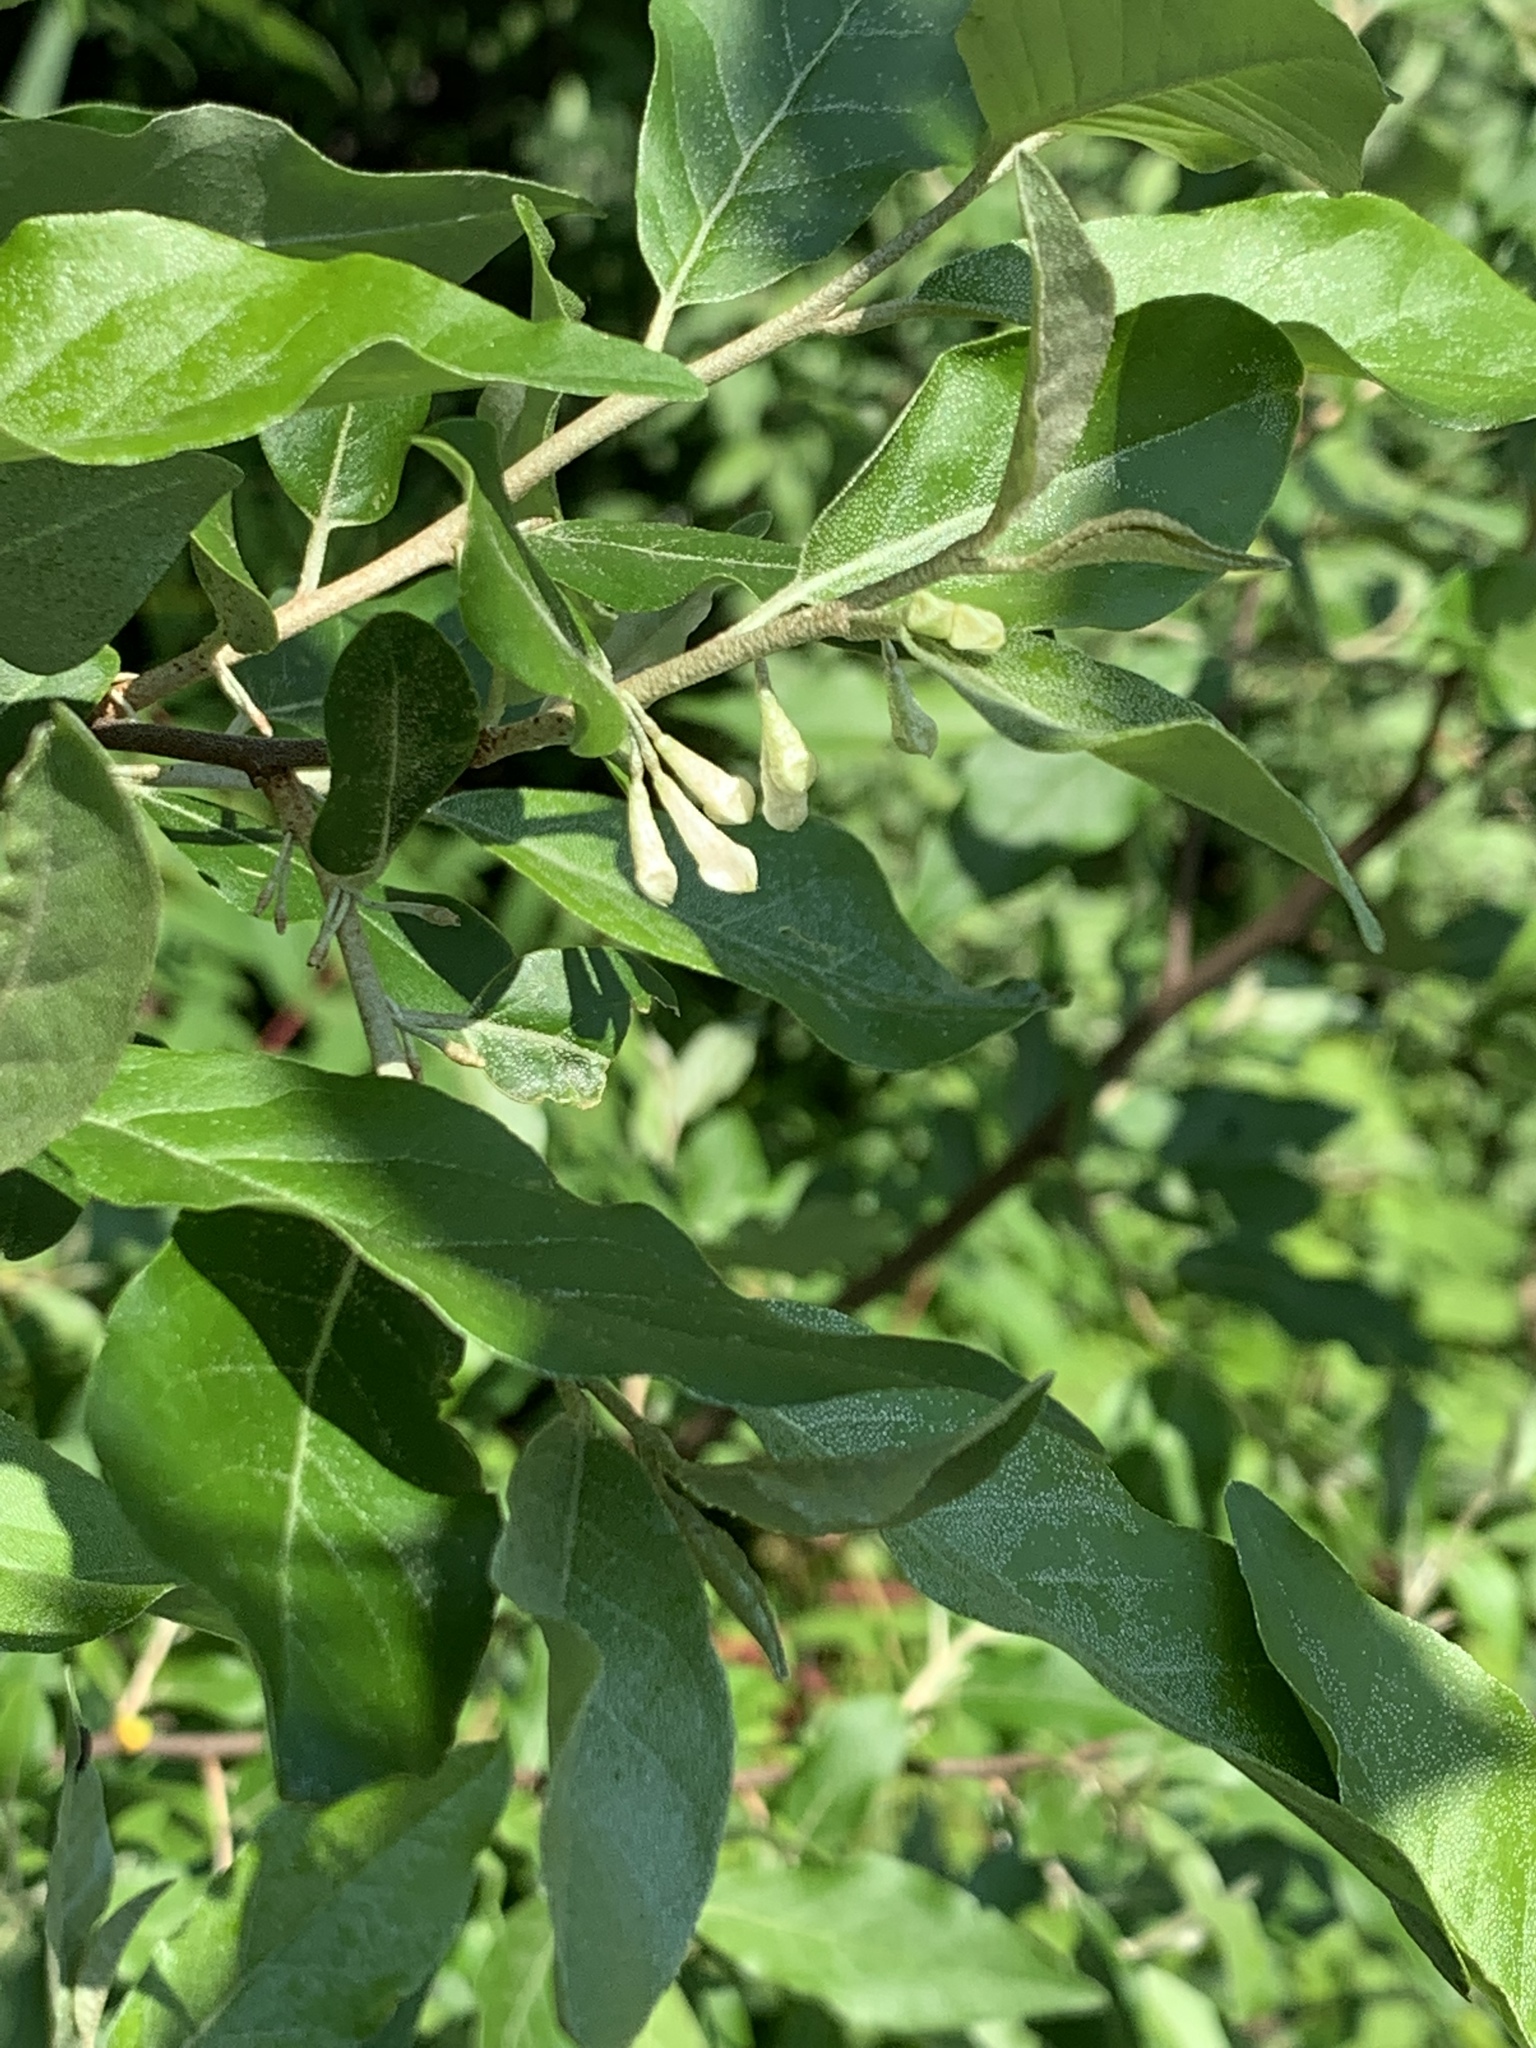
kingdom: Plantae
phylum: Tracheophyta
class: Magnoliopsida
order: Rosales
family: Elaeagnaceae
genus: Elaeagnus
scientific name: Elaeagnus umbellata
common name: Autumn olive
